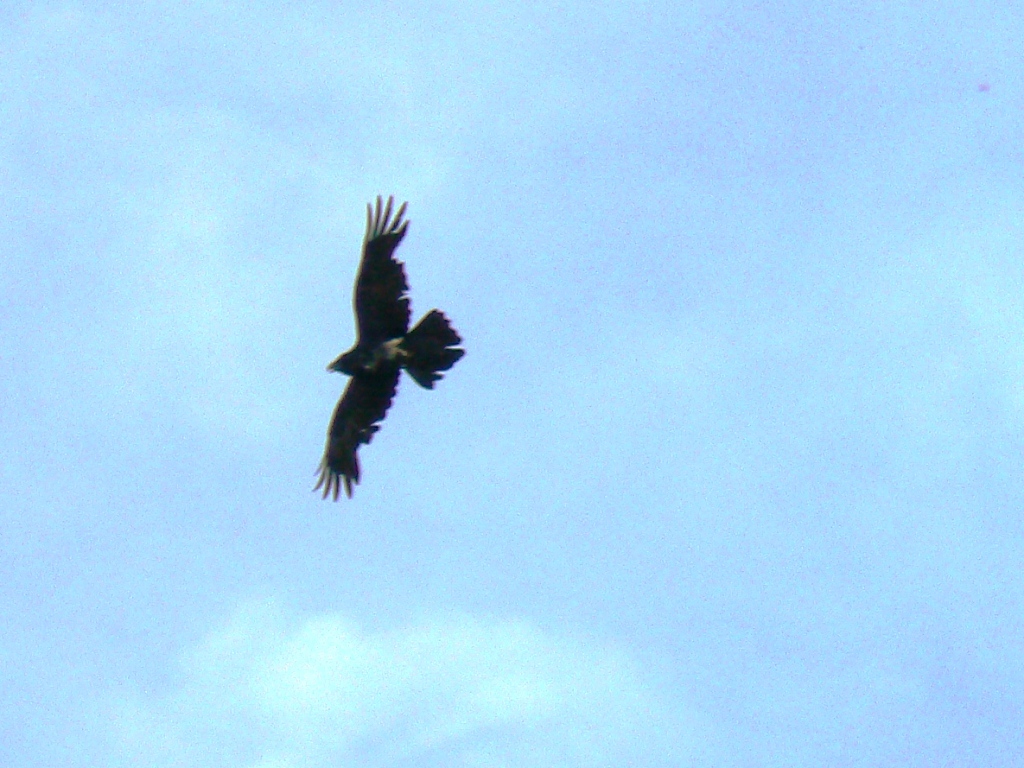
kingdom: Animalia
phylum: Chordata
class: Aves
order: Passeriformes
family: Corvidae
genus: Corvus
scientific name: Corvus corax
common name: Common raven
